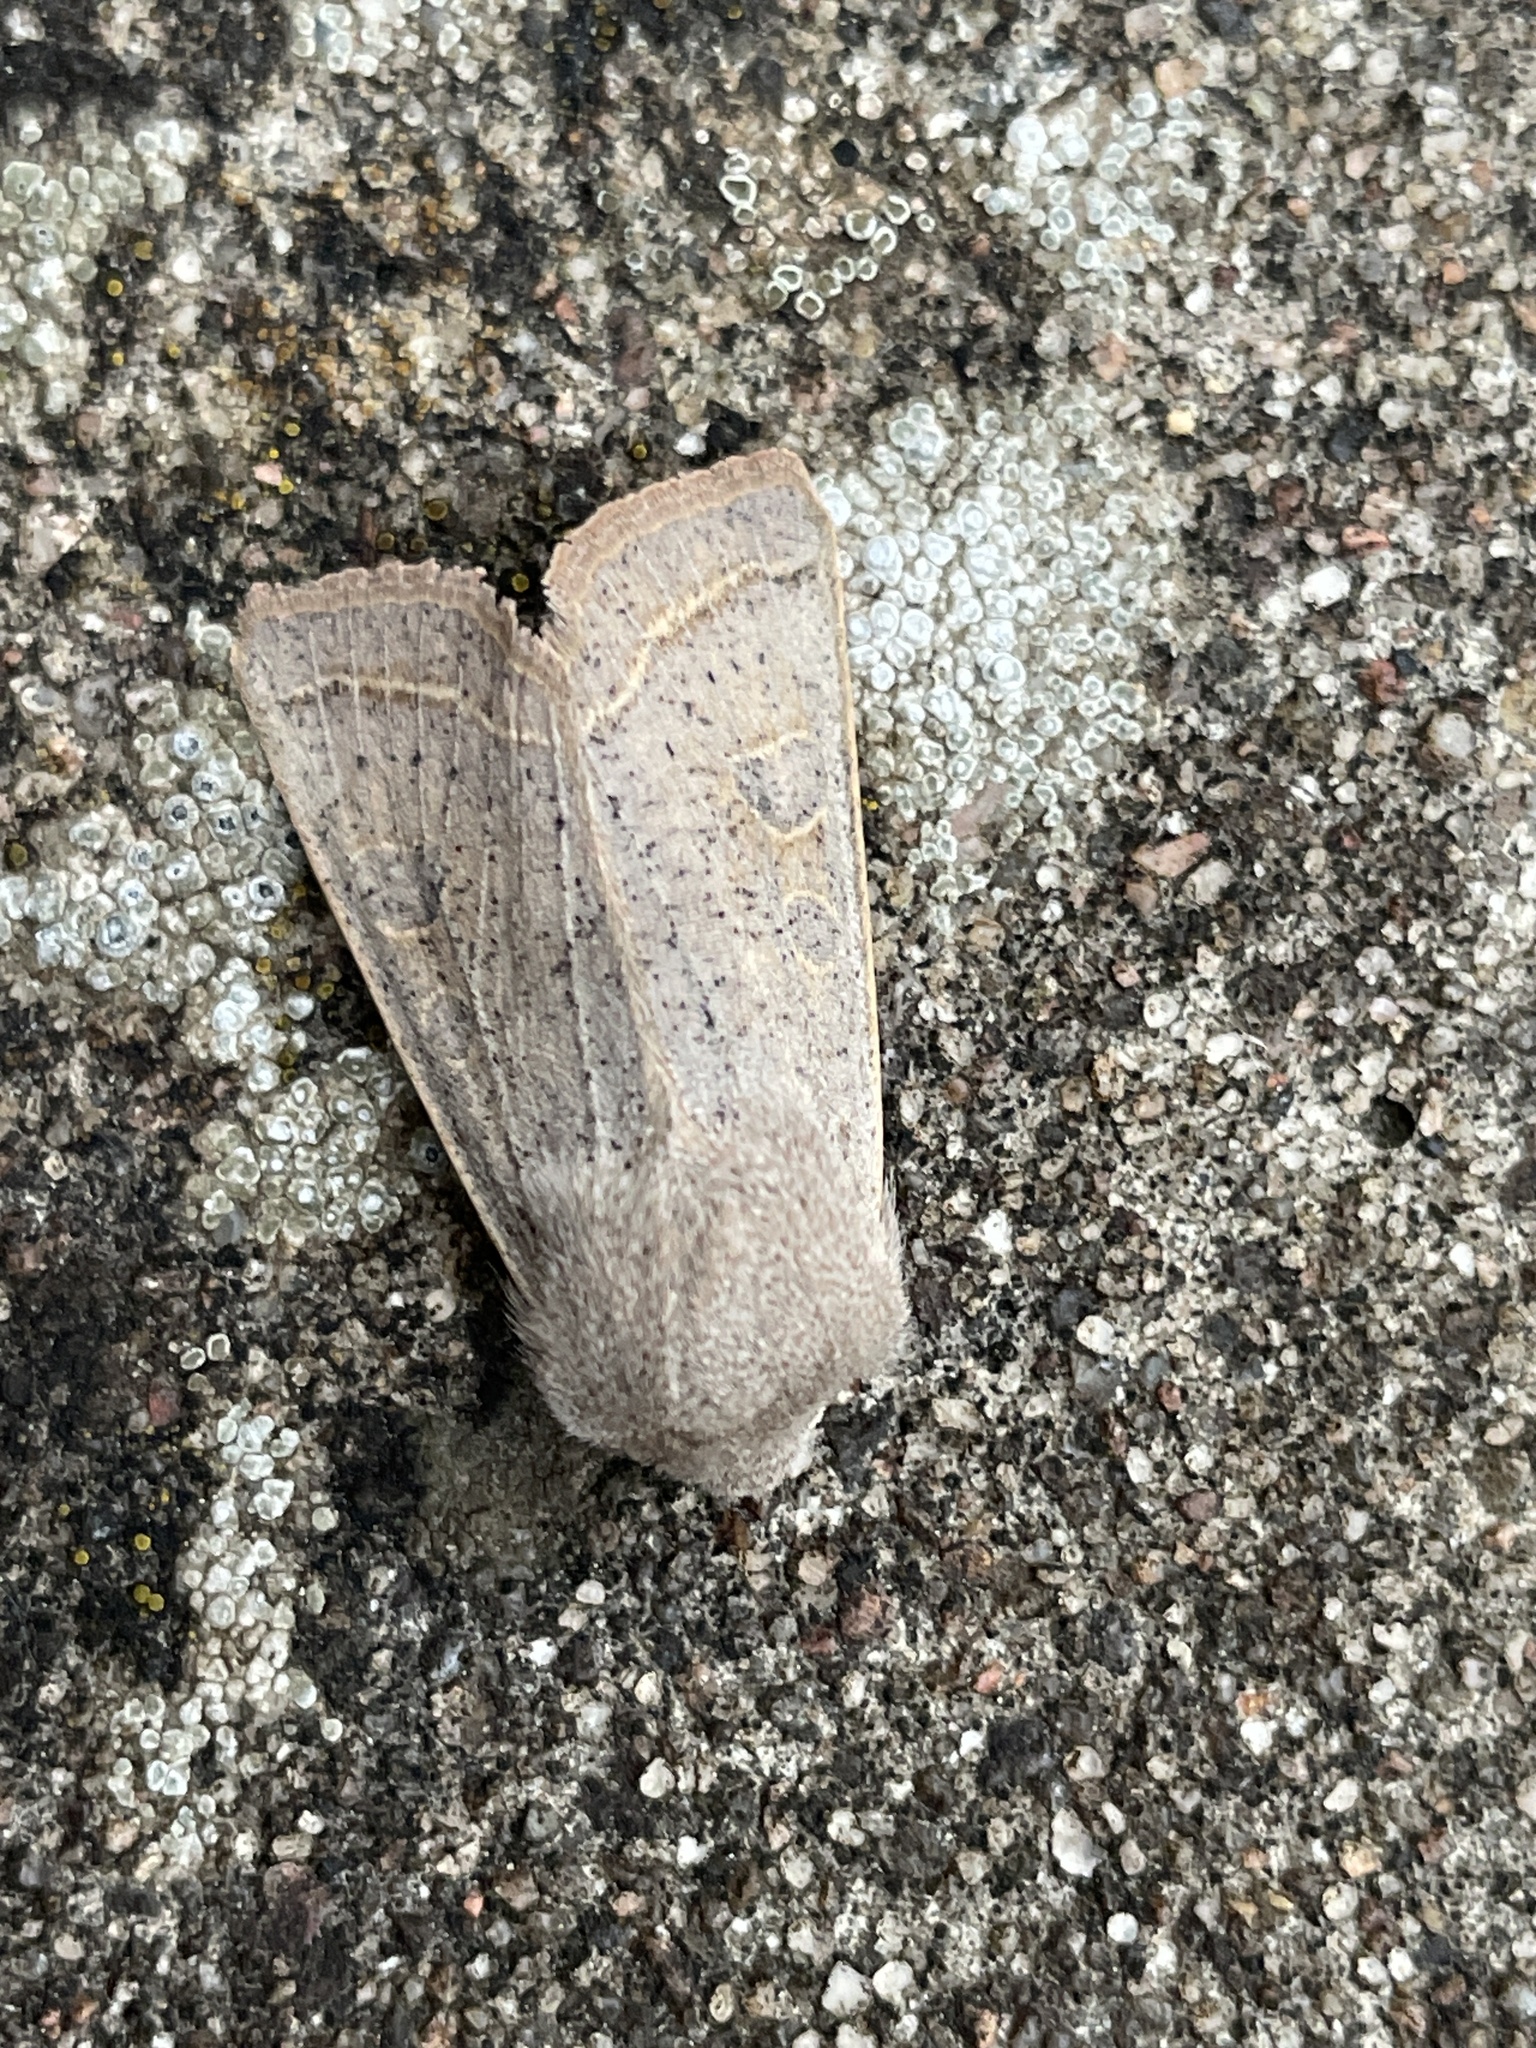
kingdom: Animalia
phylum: Arthropoda
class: Insecta
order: Lepidoptera
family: Noctuidae
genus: Orthosia
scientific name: Orthosia gracilis
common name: Powdered quaker
